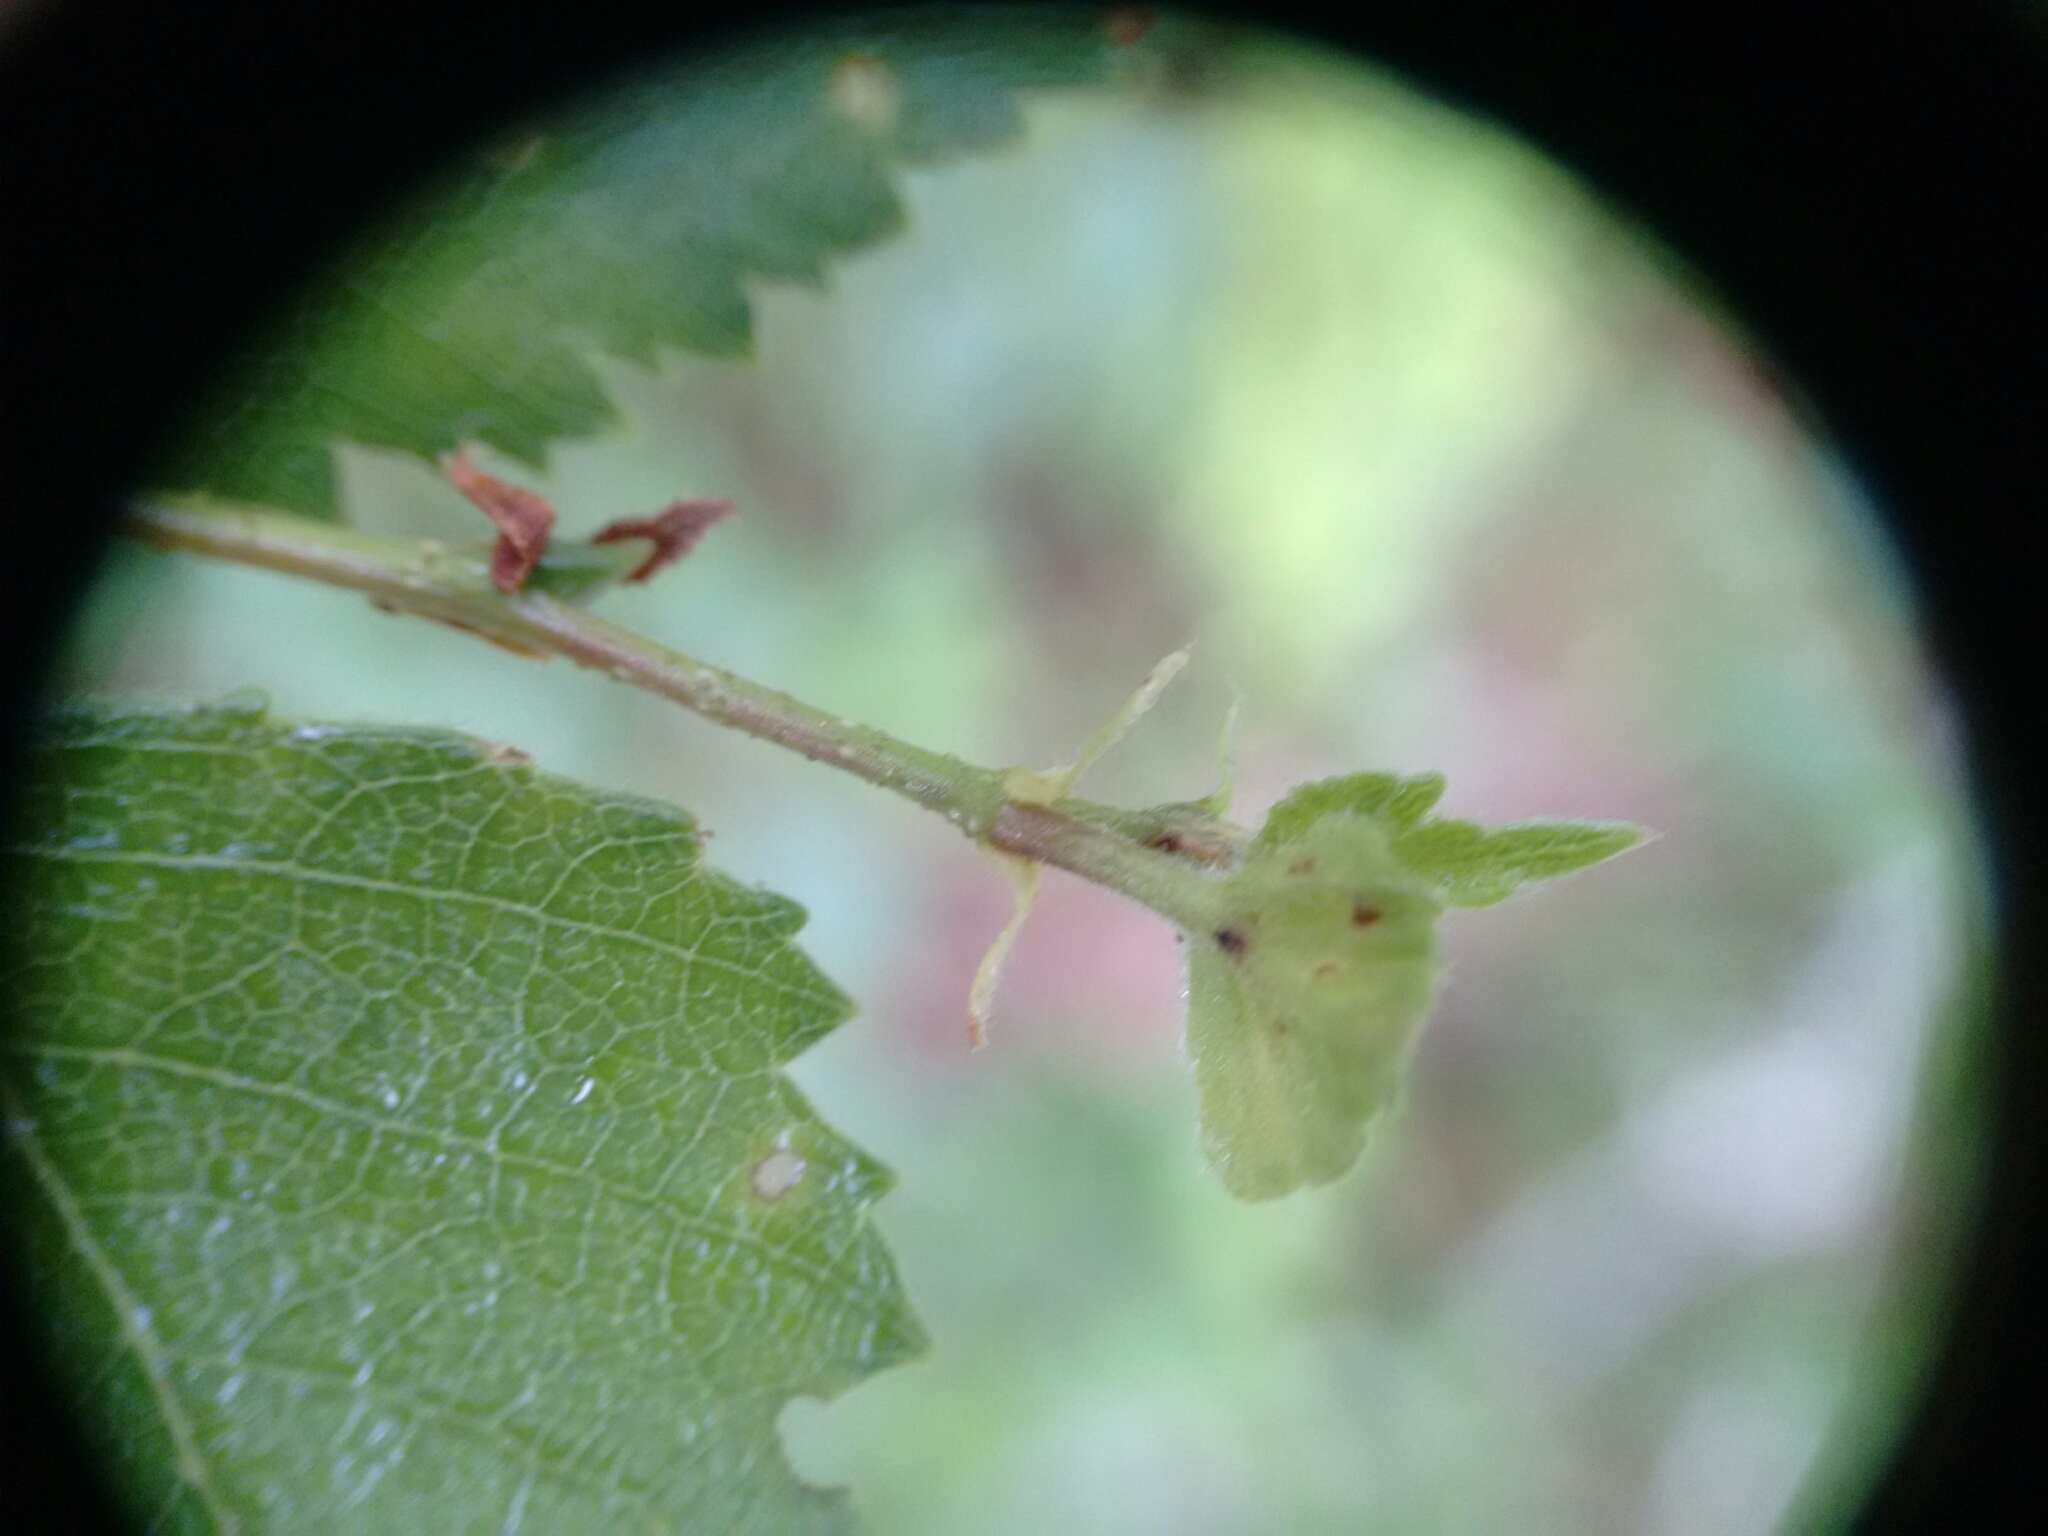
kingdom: Plantae
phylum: Tracheophyta
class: Magnoliopsida
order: Fagales
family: Betulaceae
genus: Betula
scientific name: Betula pendula
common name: Silver birch
